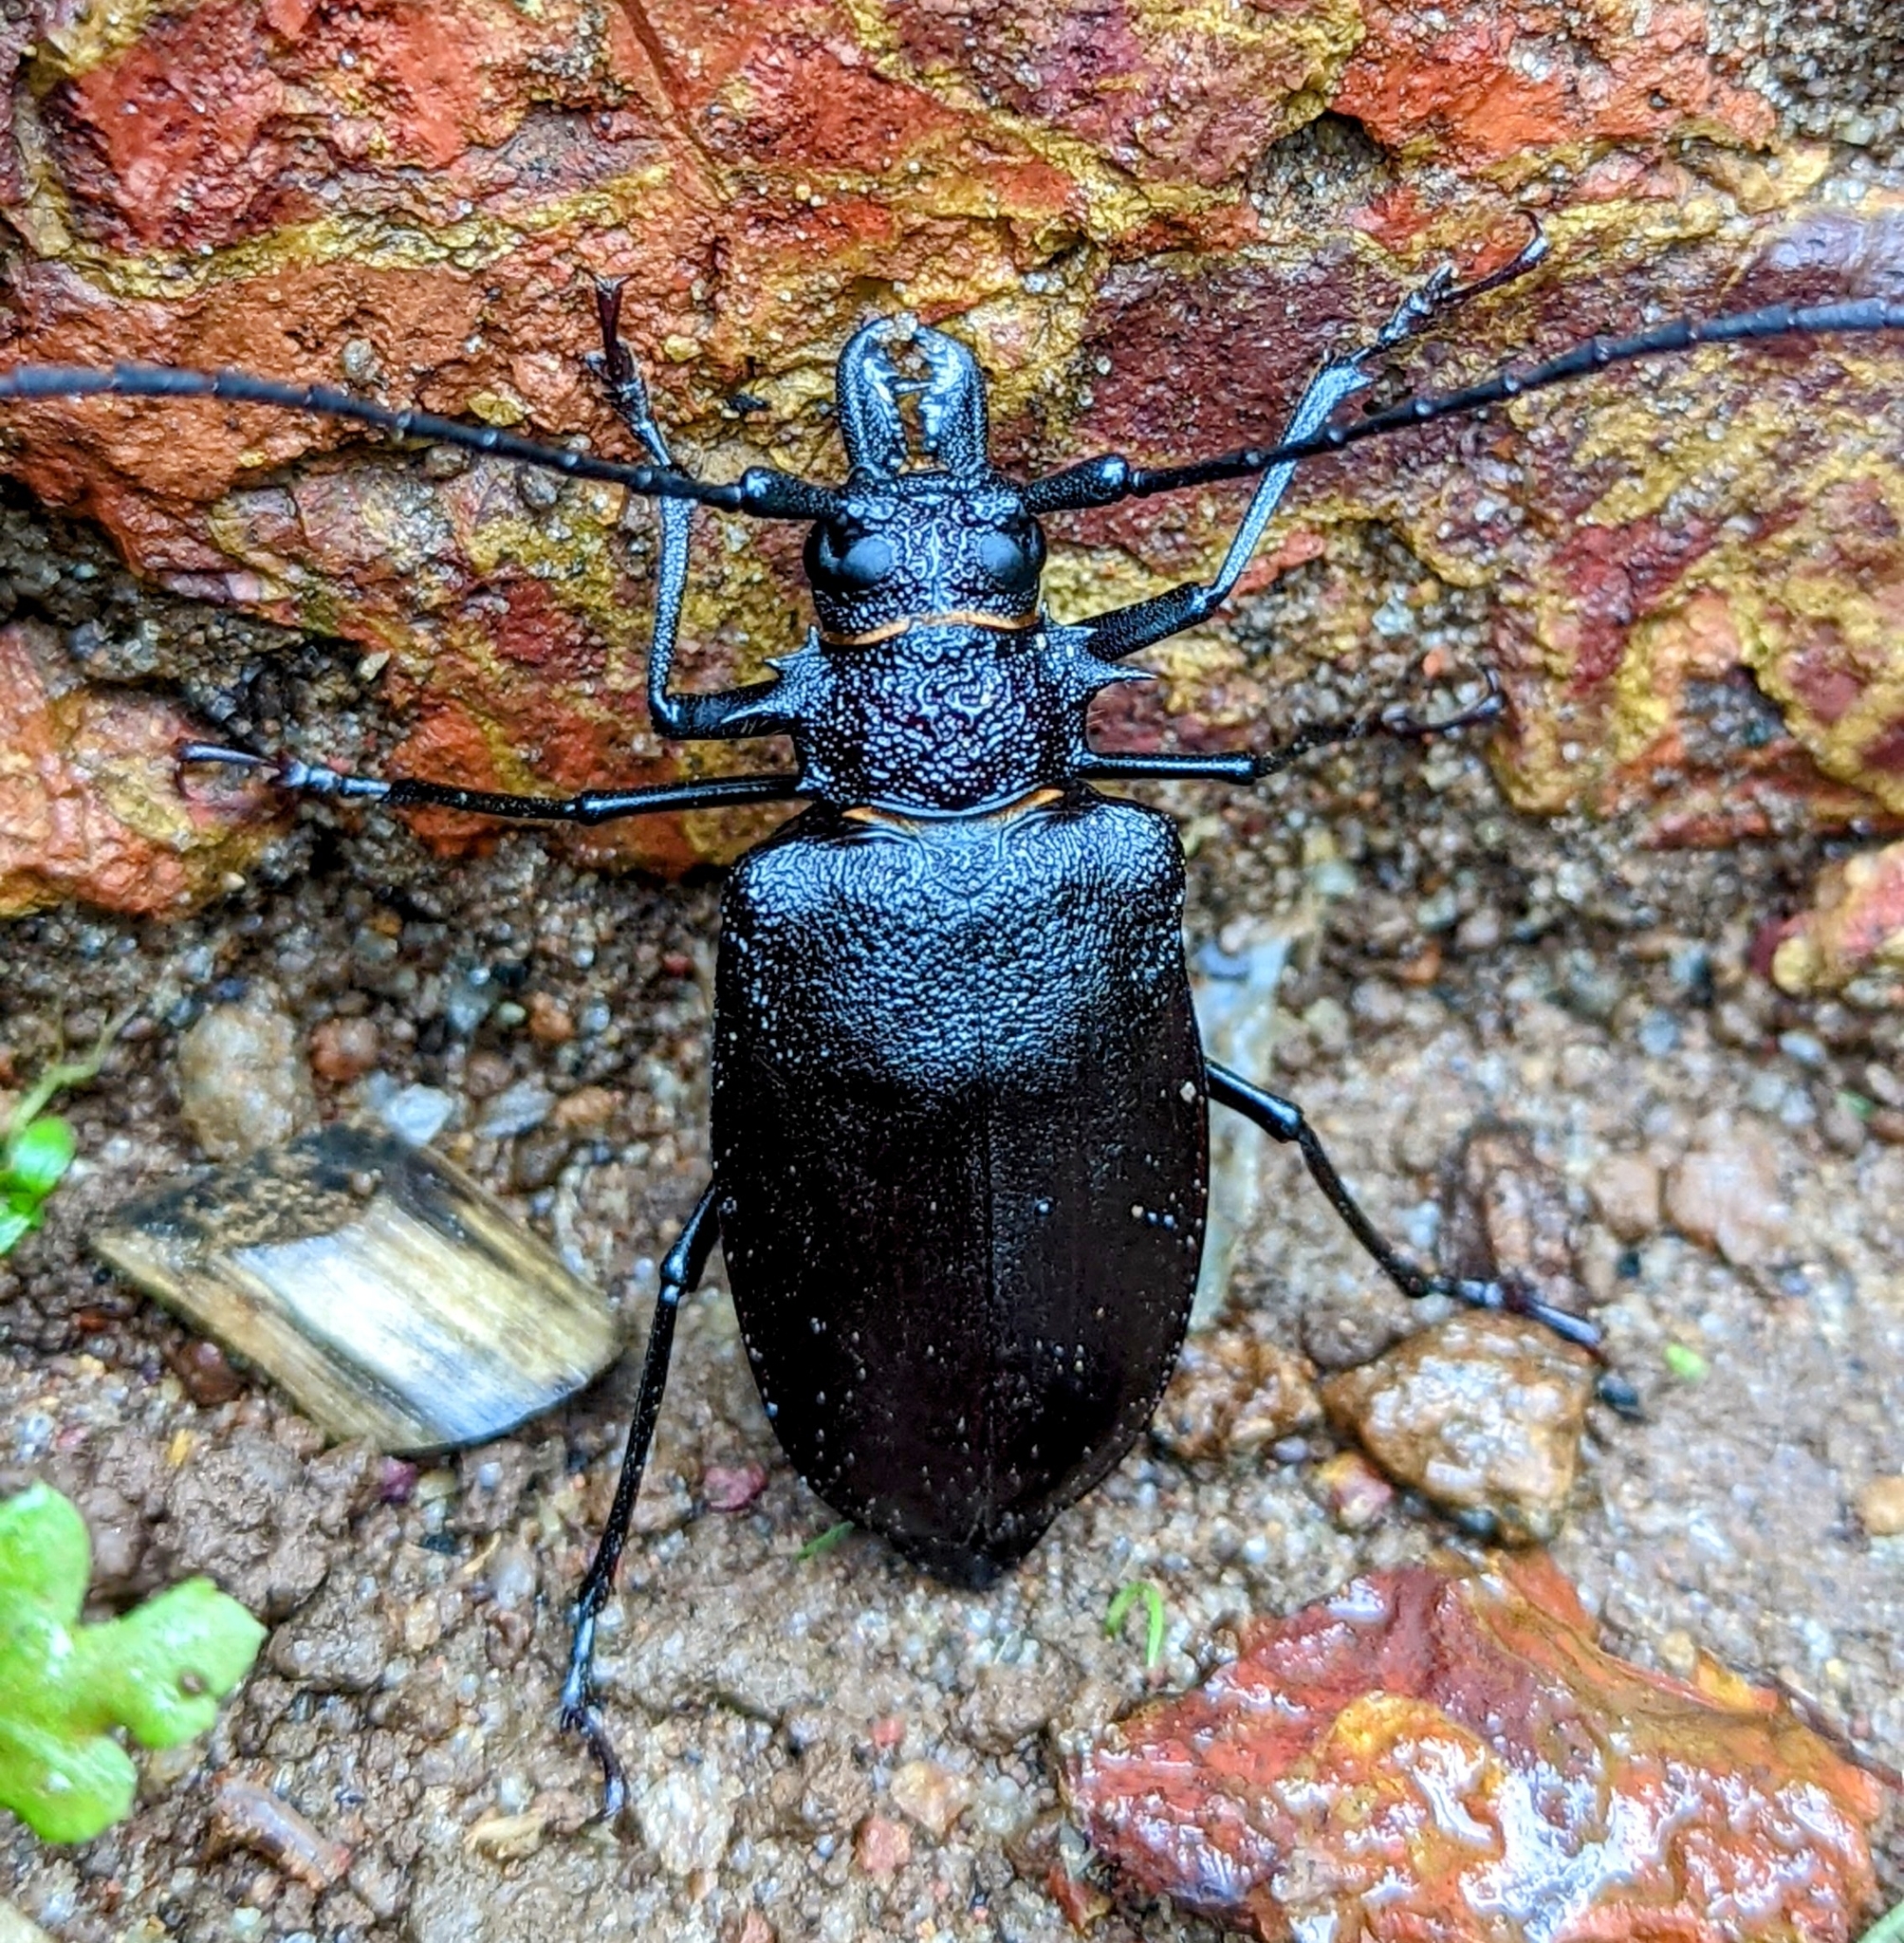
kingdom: Animalia
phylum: Arthropoda
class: Insecta
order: Coleoptera
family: Cerambycidae
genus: Priotyrannus
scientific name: Priotyrannus mordax
